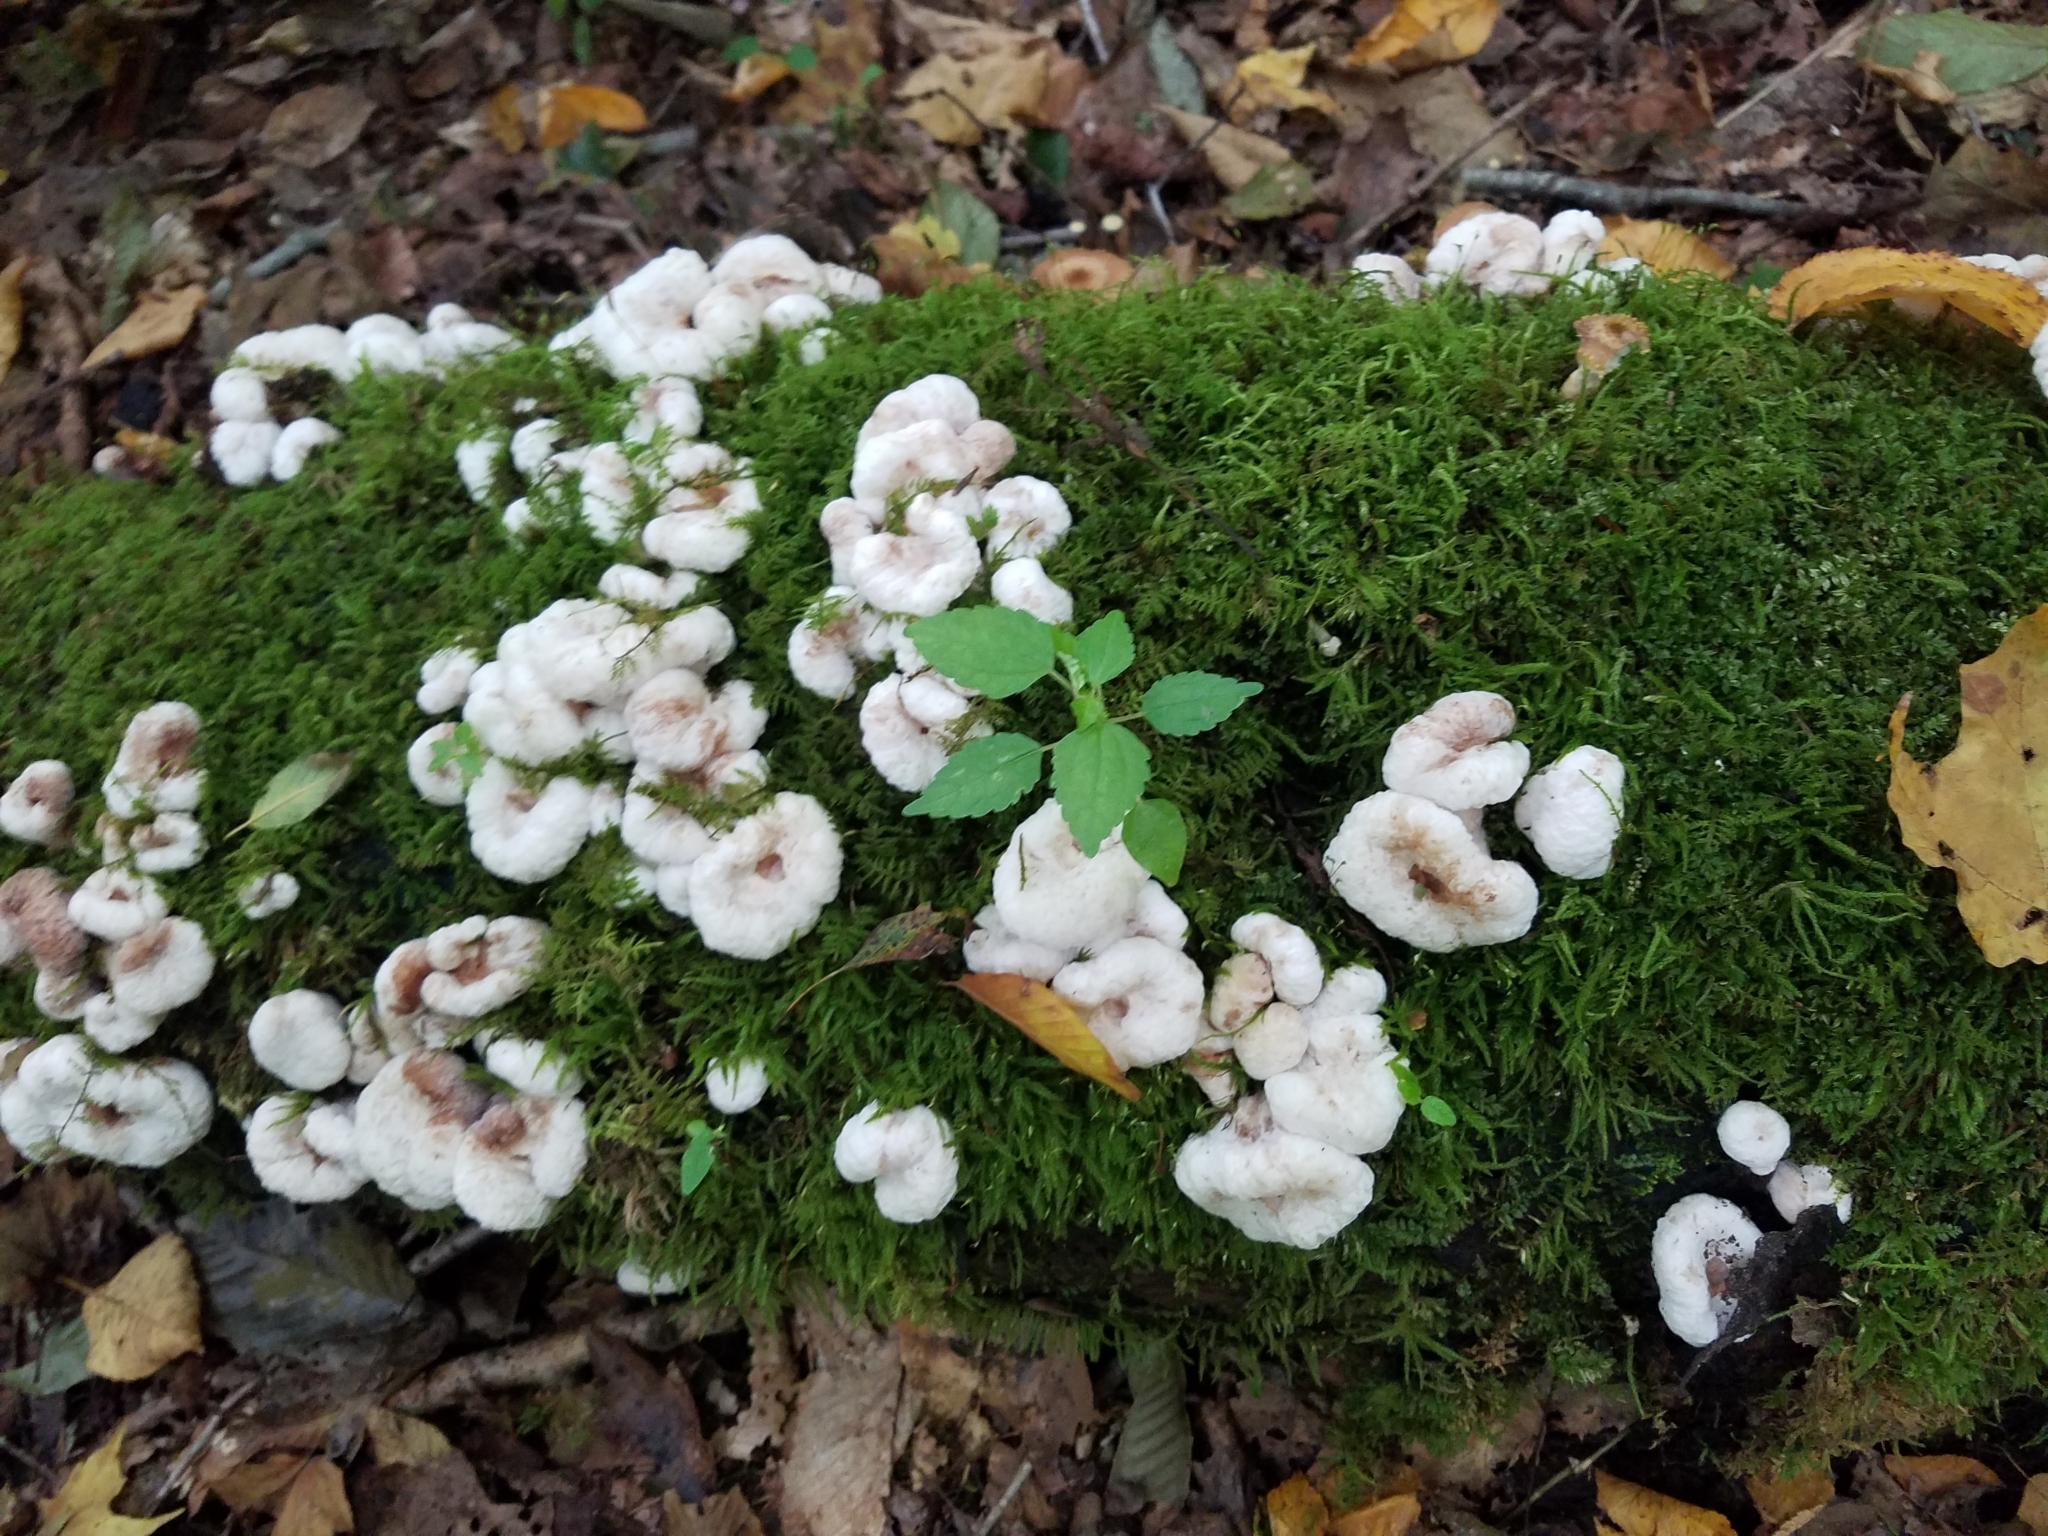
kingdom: Fungi
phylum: Basidiomycota
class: Agaricomycetes
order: Agaricales
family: Entolomataceae
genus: Entoloma
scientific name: Entoloma abortivum
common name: Aborted entoloma
